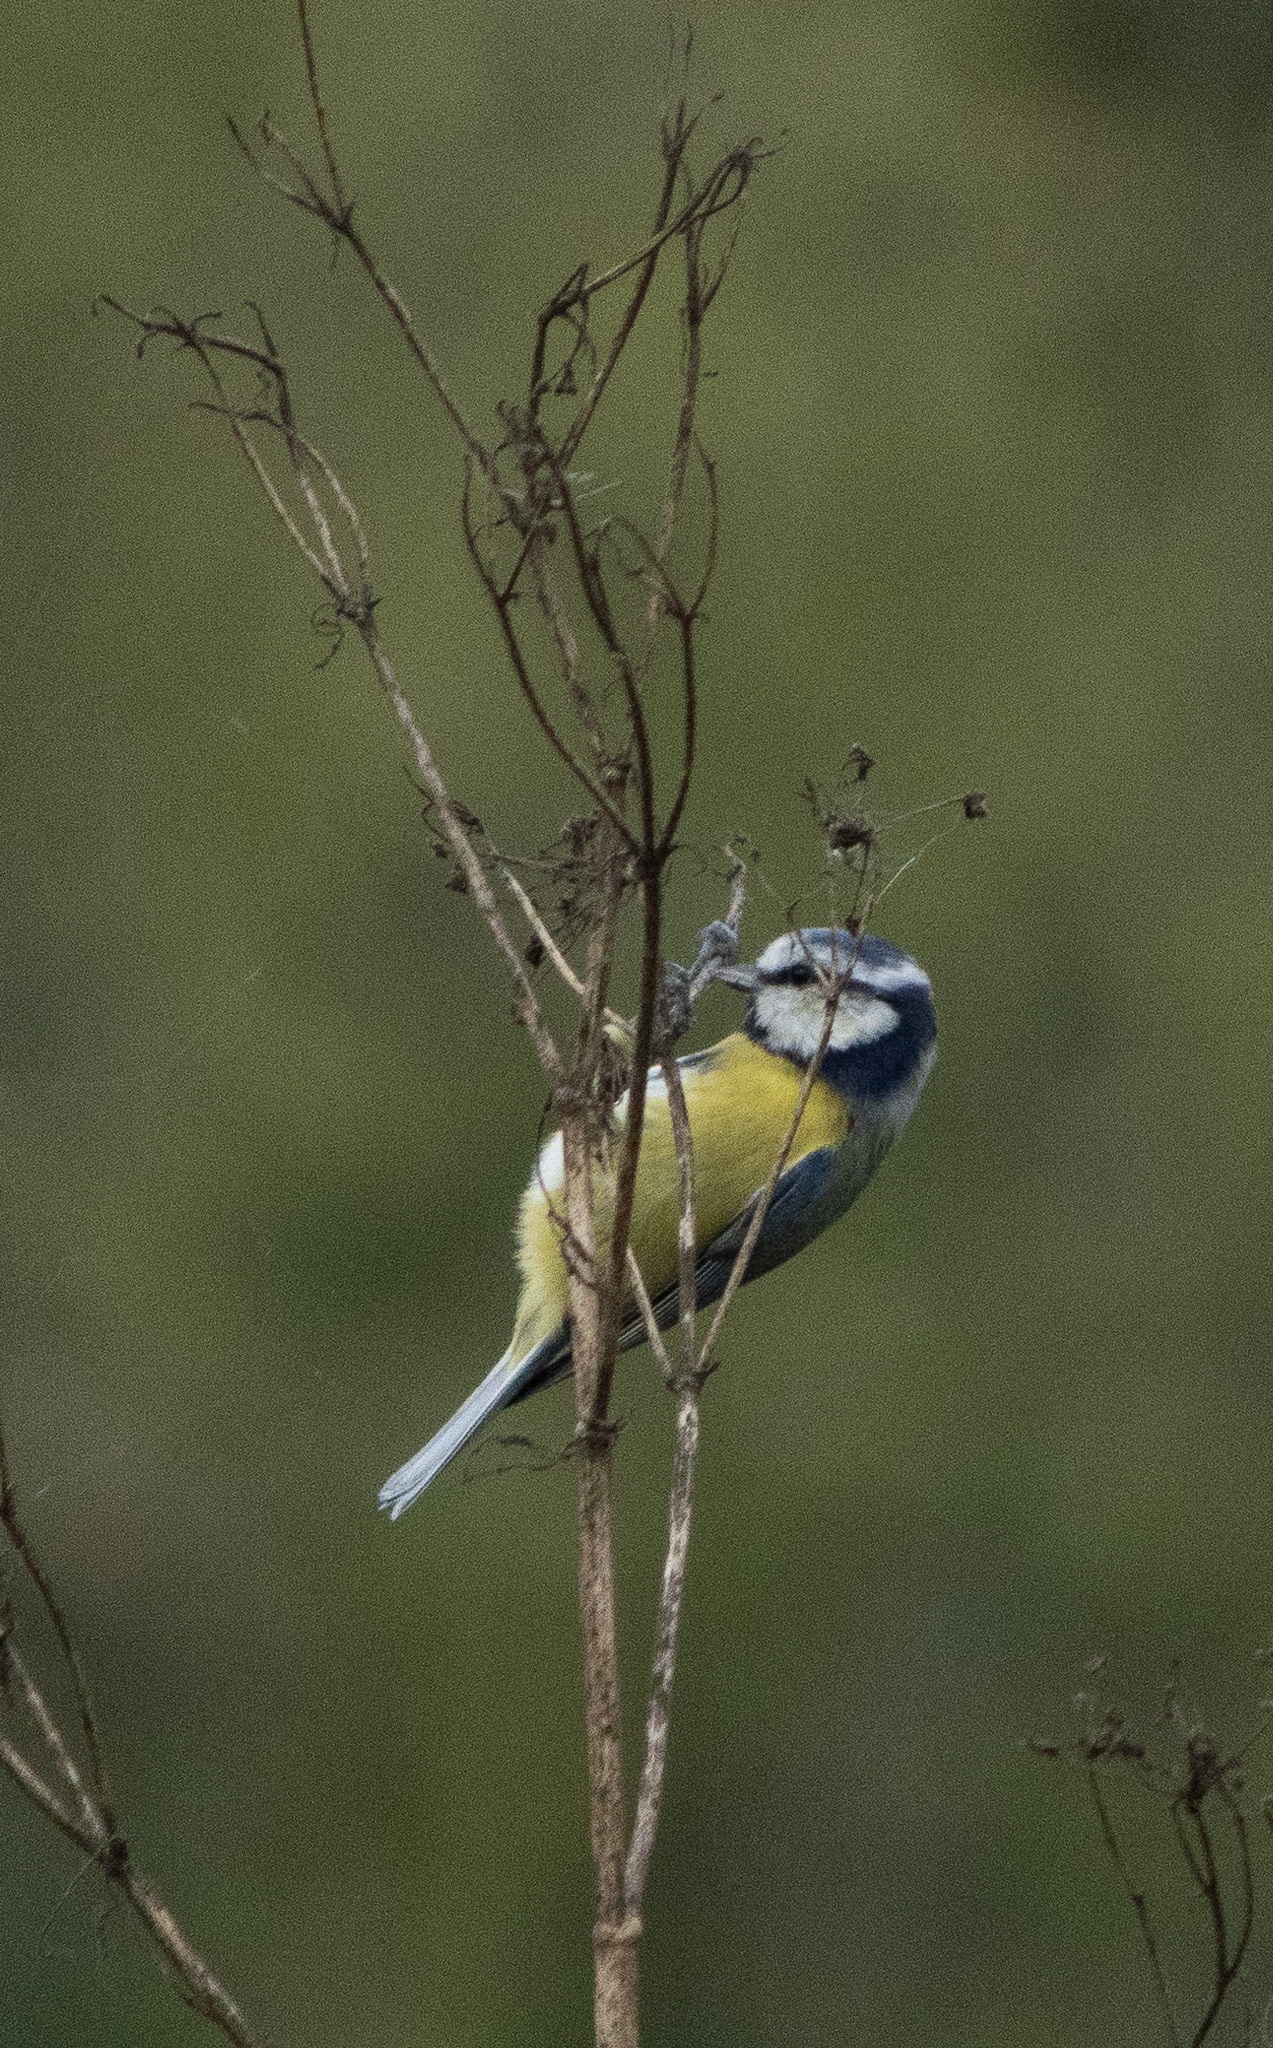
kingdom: Animalia
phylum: Chordata
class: Aves
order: Passeriformes
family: Paridae
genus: Cyanistes
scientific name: Cyanistes caeruleus
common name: Eurasian blue tit
